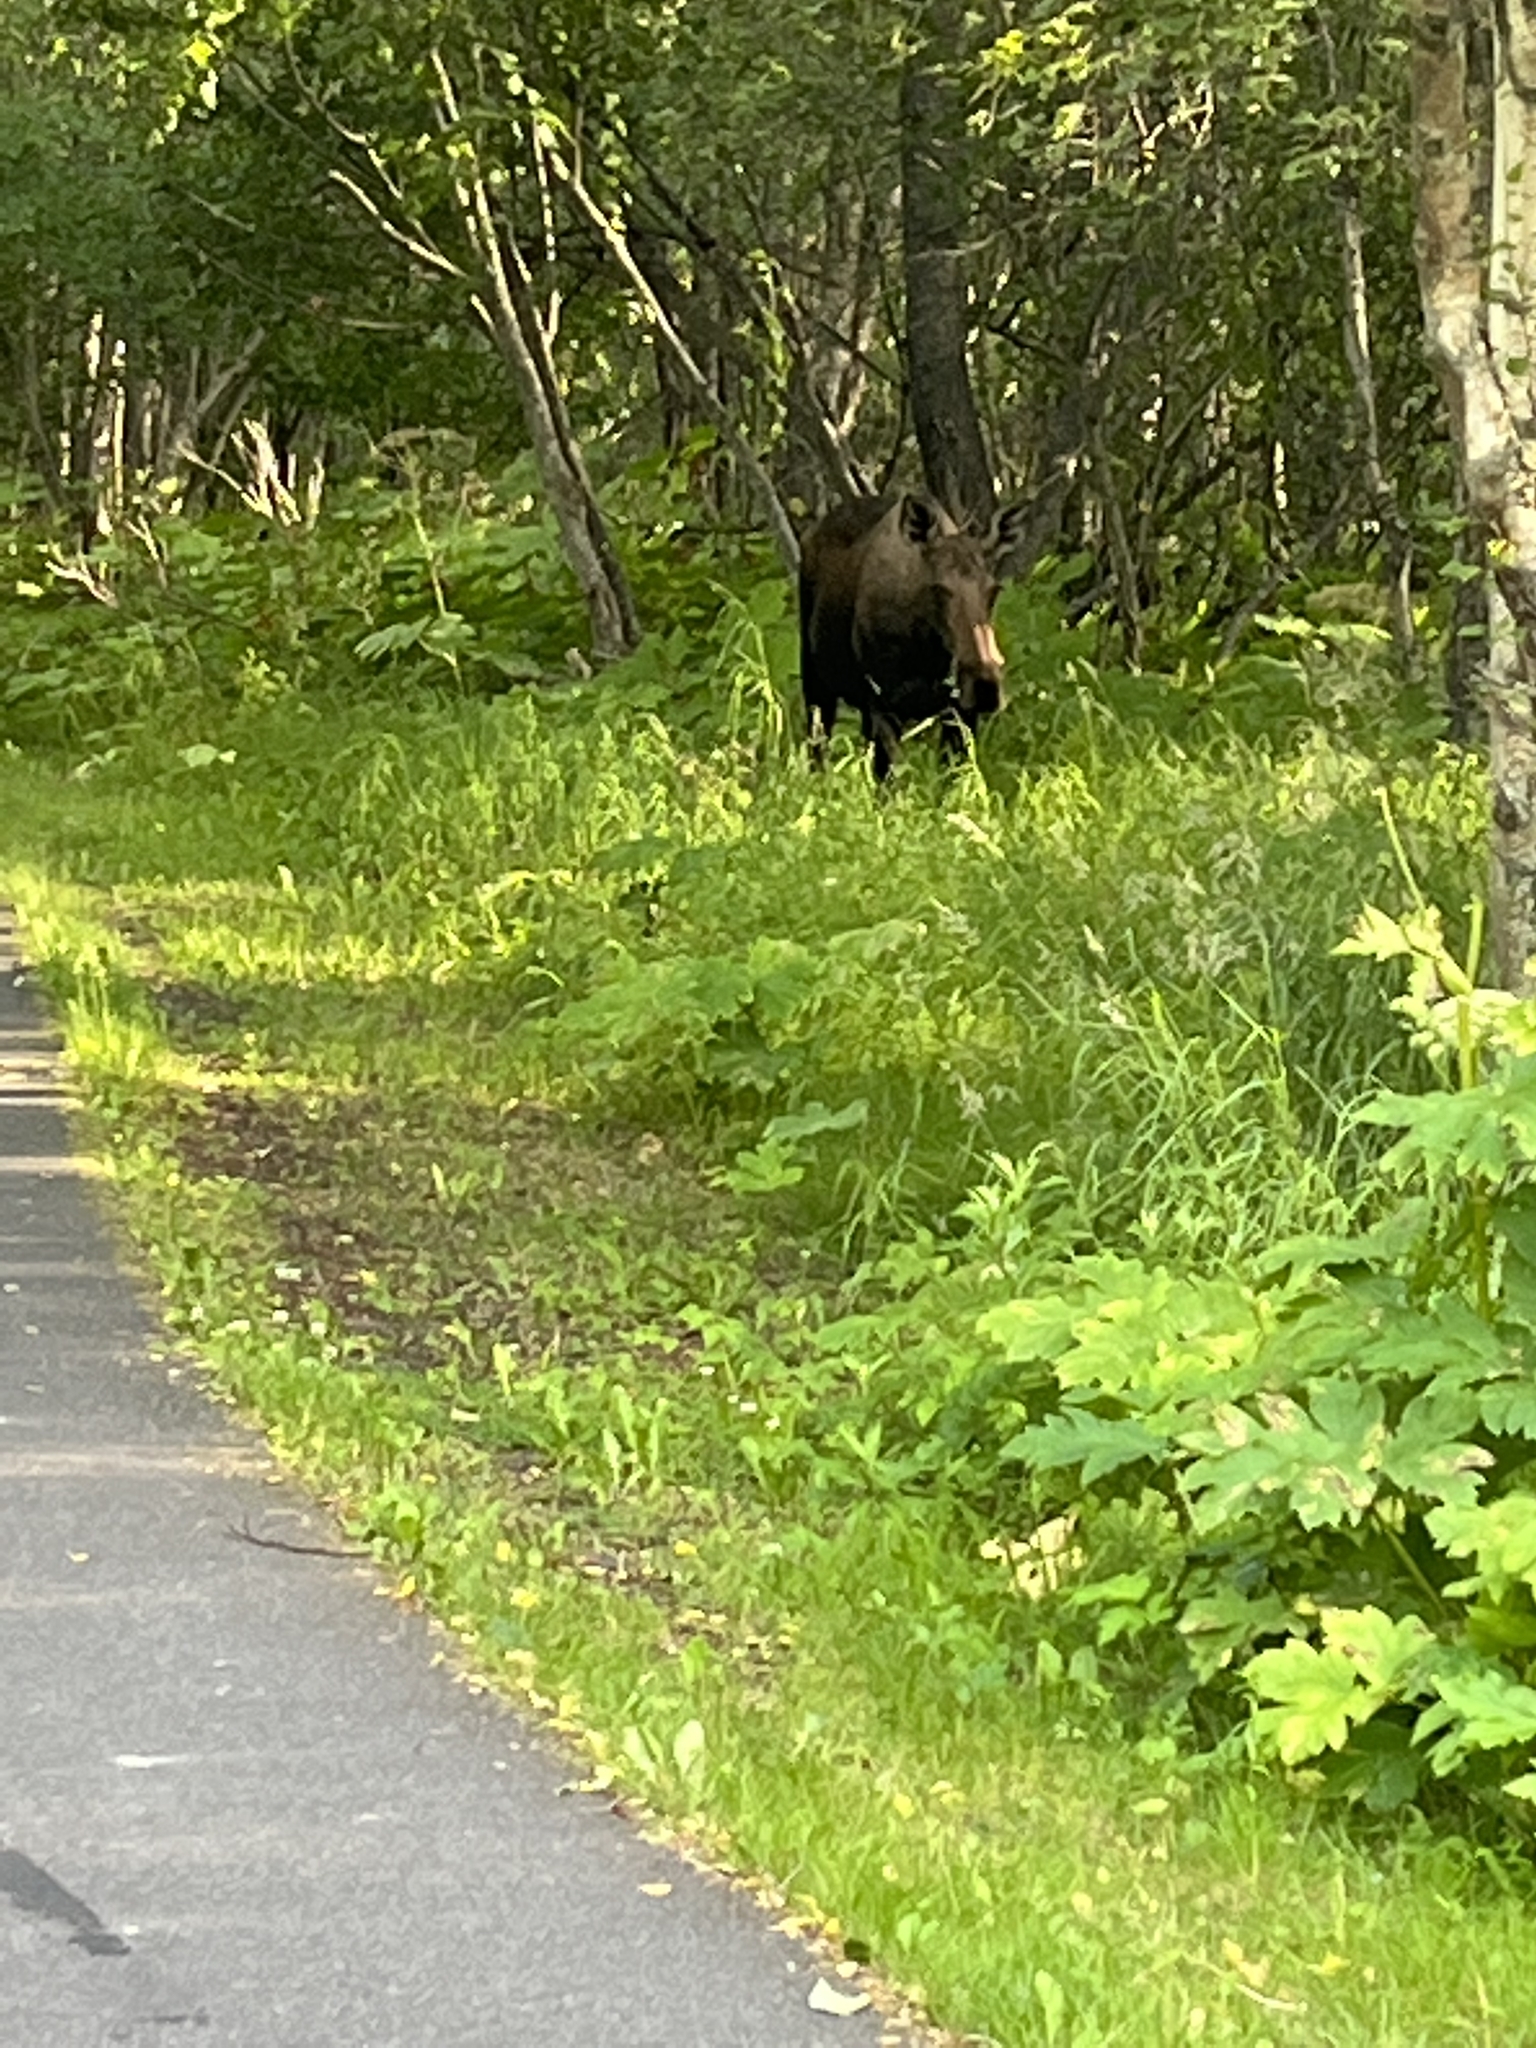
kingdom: Animalia
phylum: Chordata
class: Mammalia
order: Artiodactyla
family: Cervidae
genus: Alces
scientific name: Alces alces
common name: Moose
